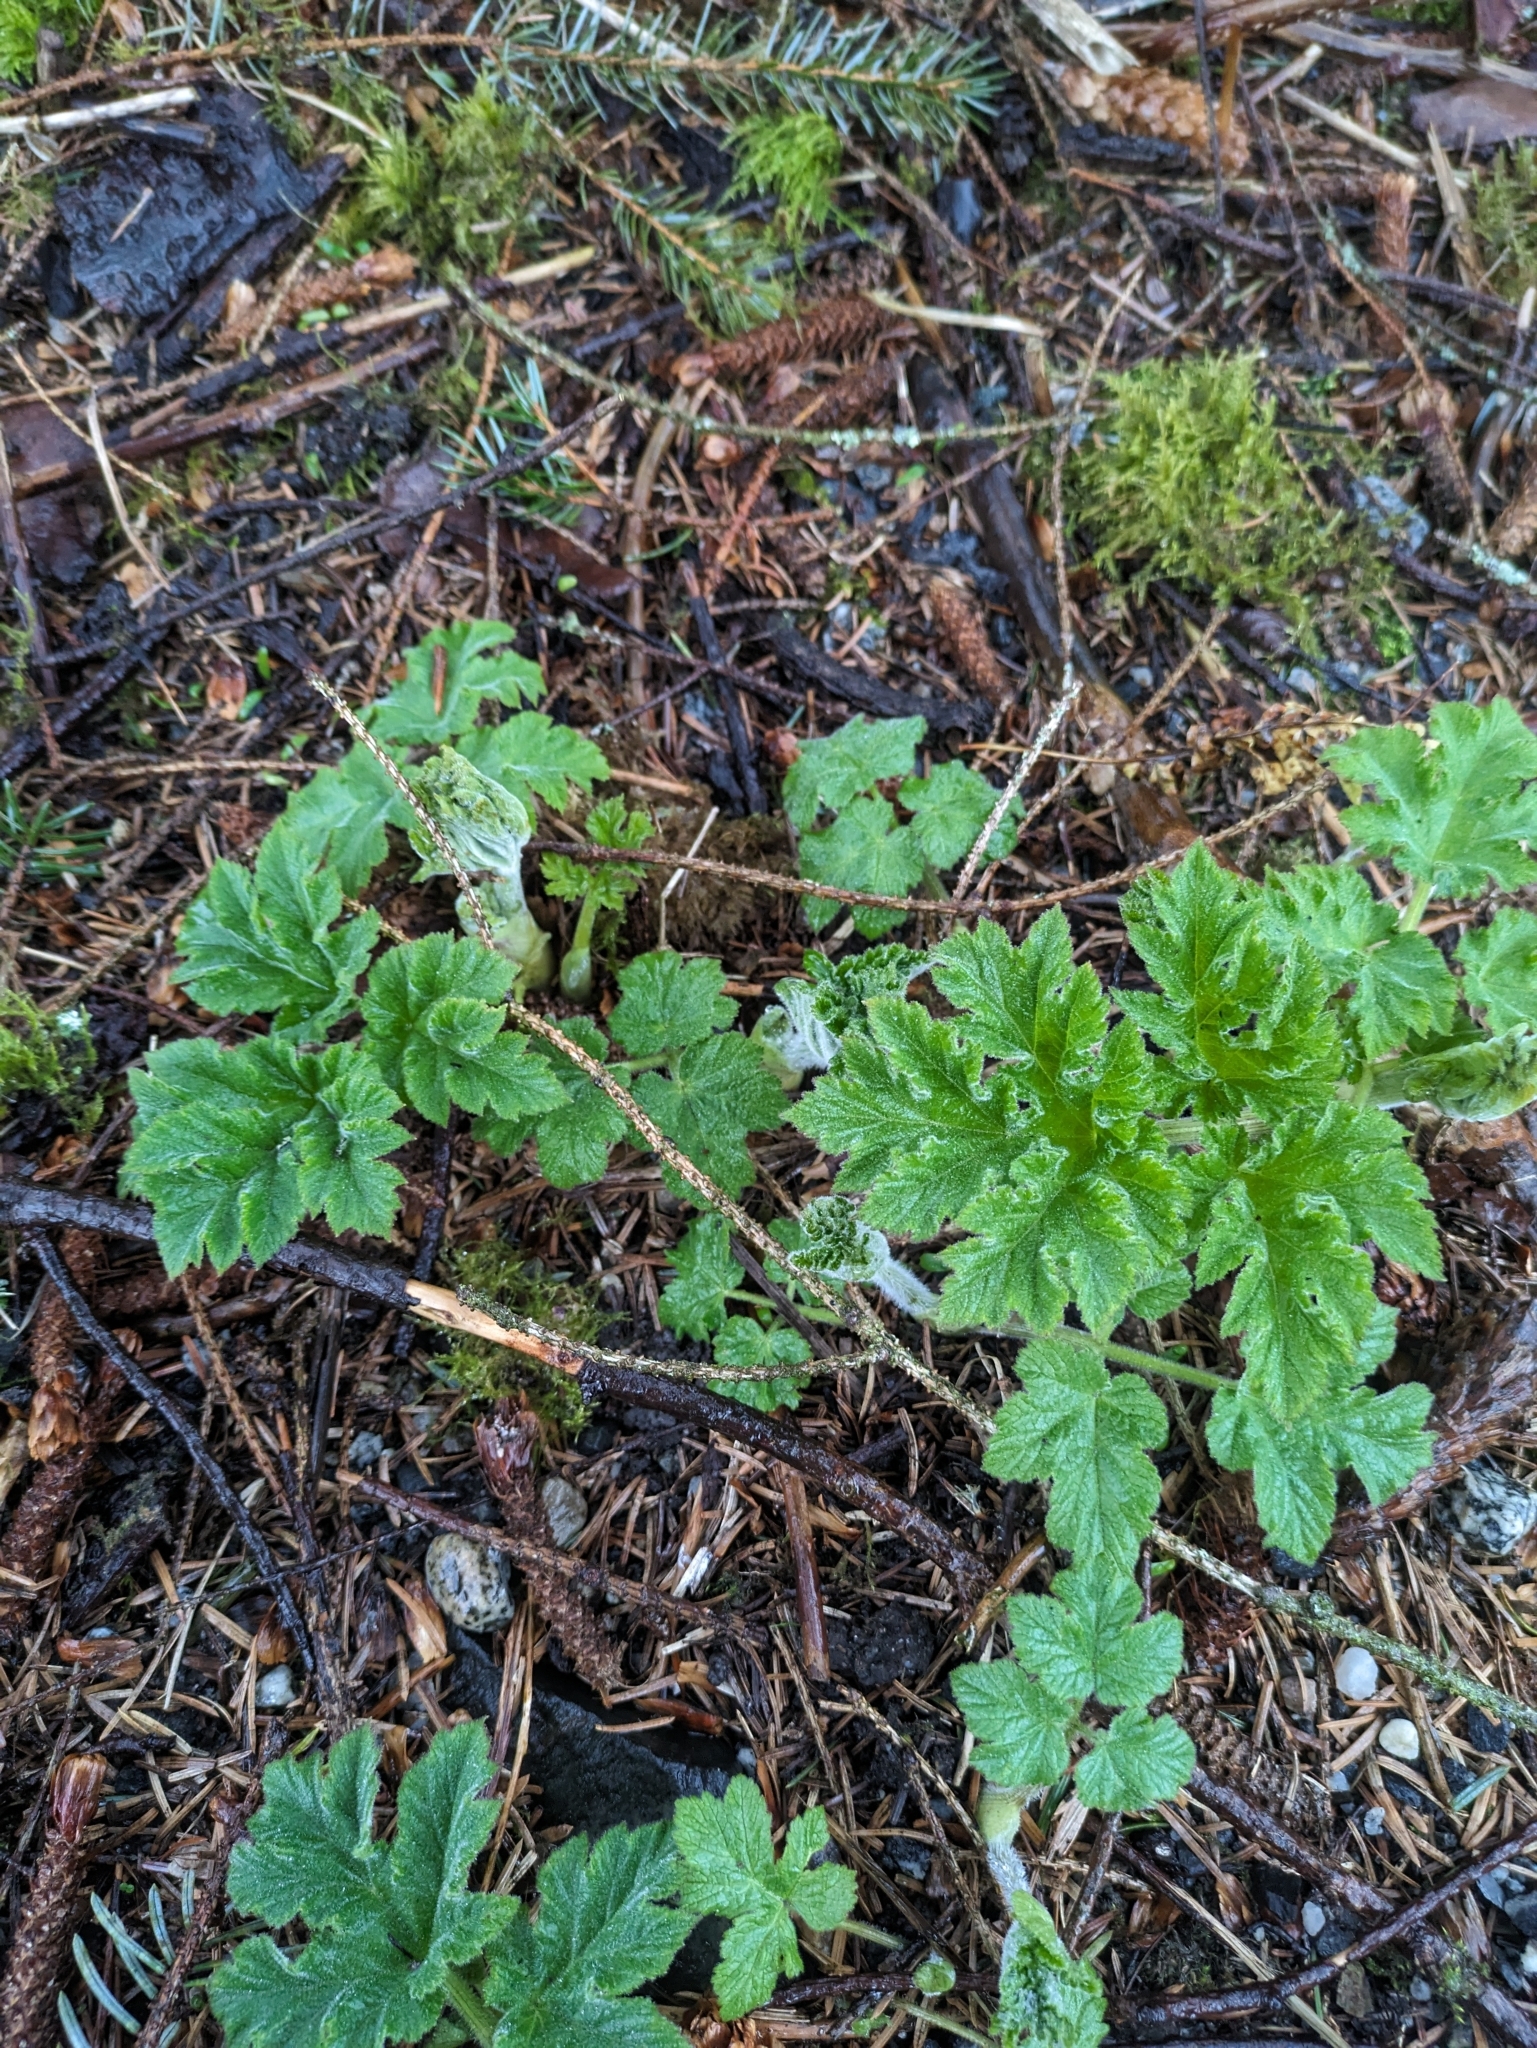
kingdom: Plantae
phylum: Tracheophyta
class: Magnoliopsida
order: Apiales
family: Apiaceae
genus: Heracleum
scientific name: Heracleum maximum
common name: American cow parsnip
